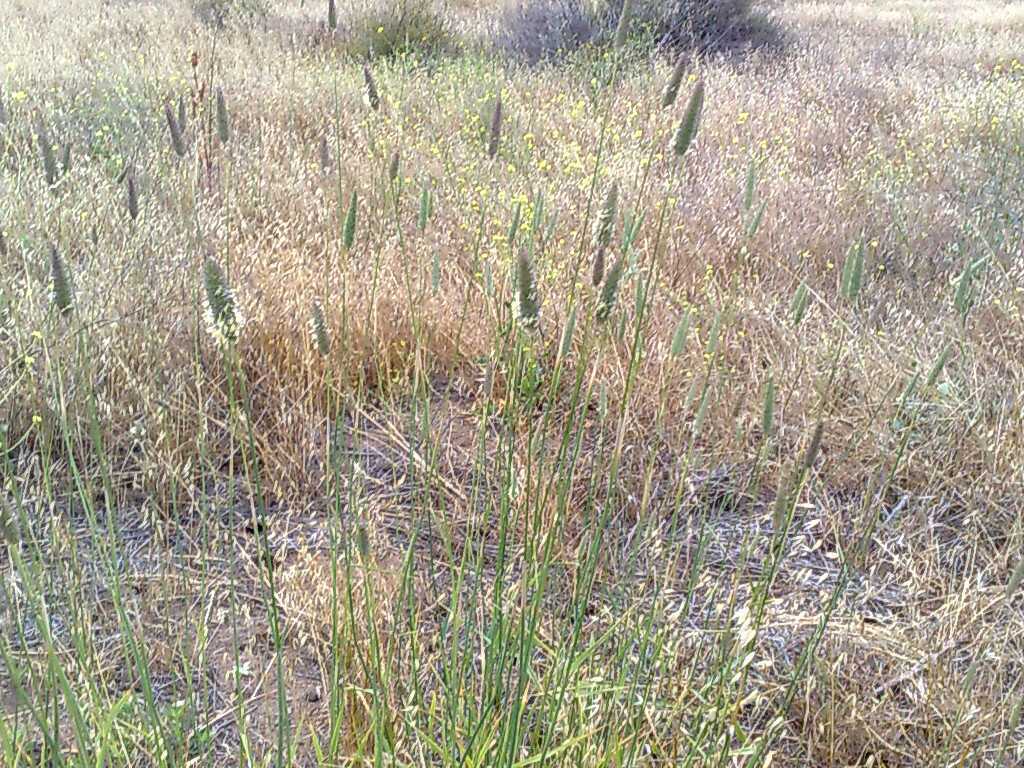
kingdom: Plantae
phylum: Tracheophyta
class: Liliopsida
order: Poales
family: Poaceae
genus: Phalaris
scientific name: Phalaris aquatica
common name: Bulbous canary-grass
